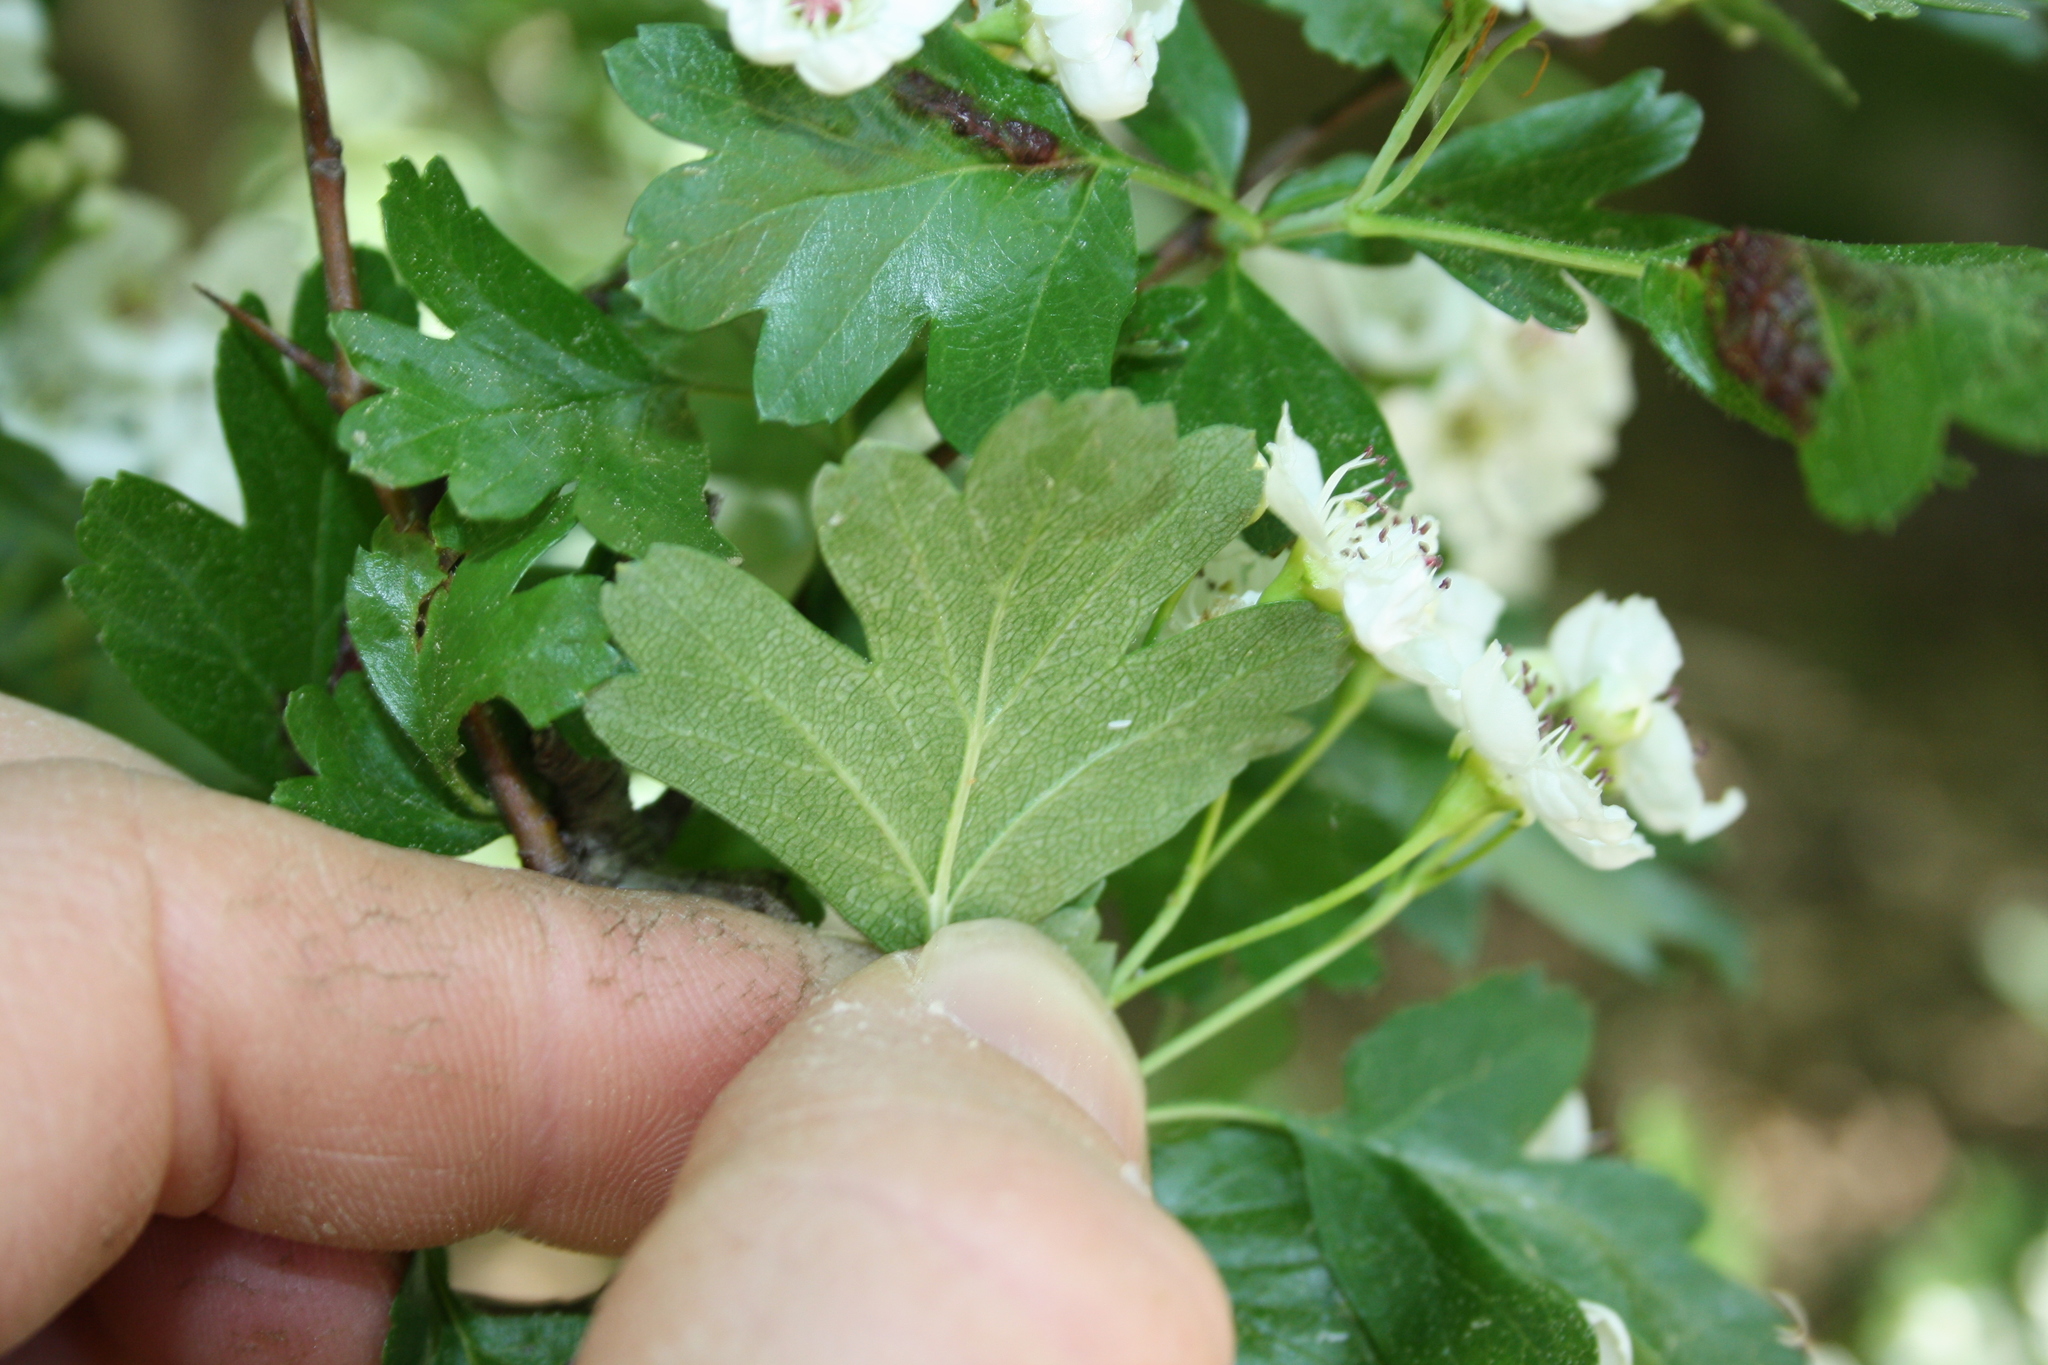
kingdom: Plantae
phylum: Tracheophyta
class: Magnoliopsida
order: Rosales
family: Rosaceae
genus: Crataegus
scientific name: Crataegus monogyna
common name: Hawthorn
